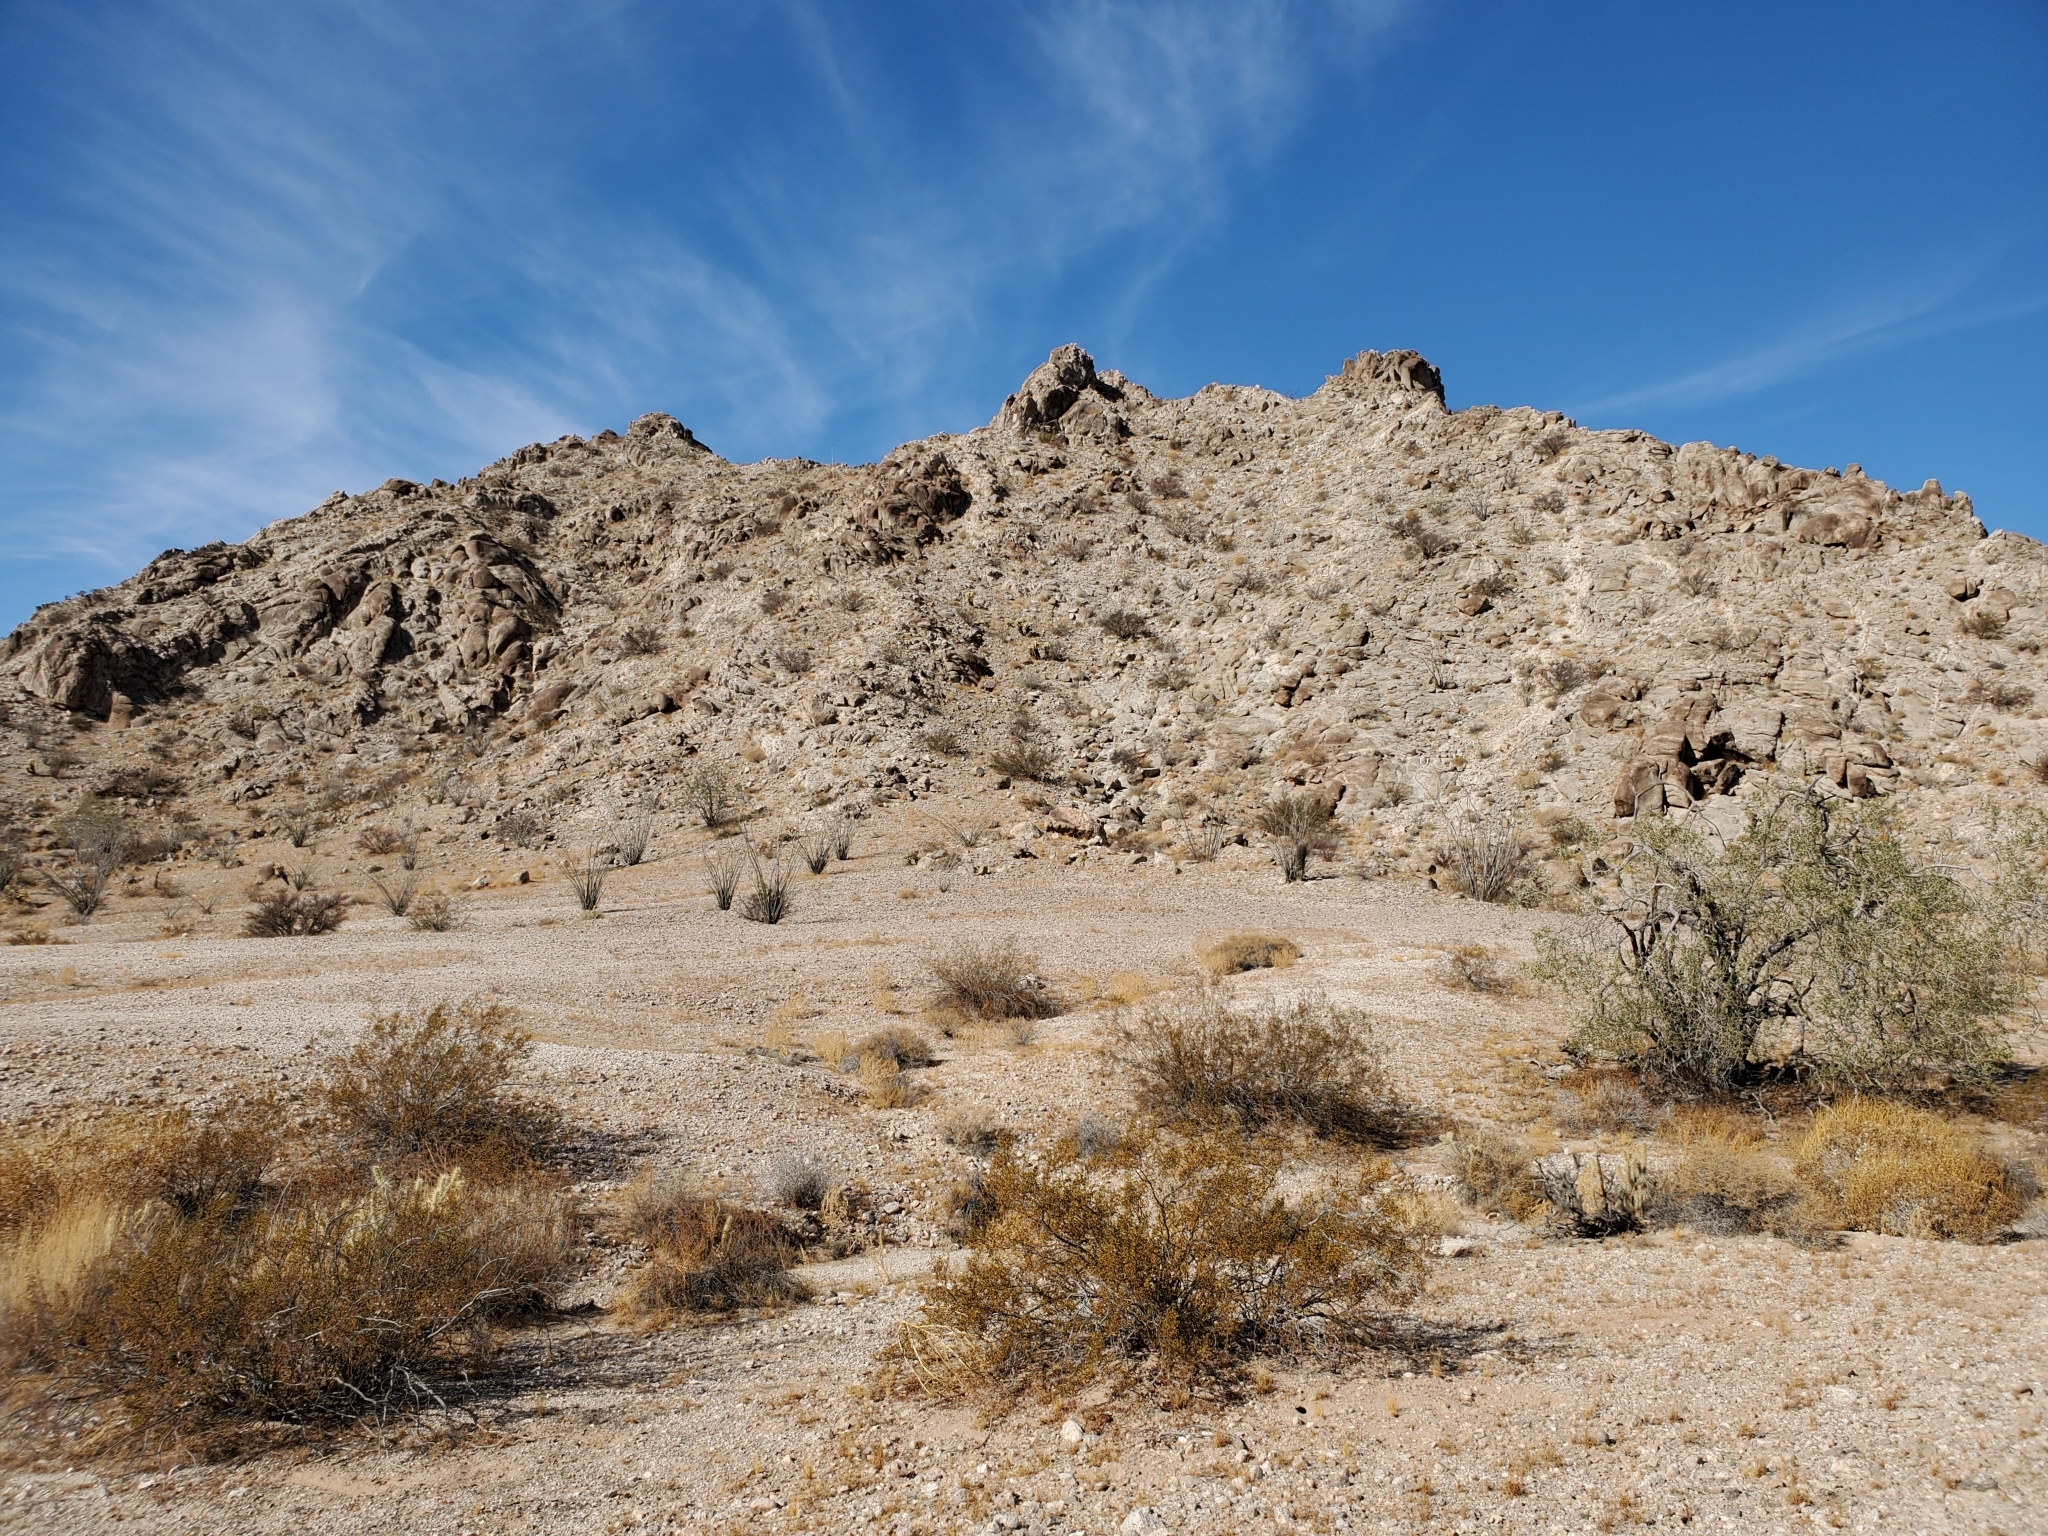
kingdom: Plantae
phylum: Tracheophyta
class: Magnoliopsida
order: Zygophyllales
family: Zygophyllaceae
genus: Larrea
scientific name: Larrea tridentata
